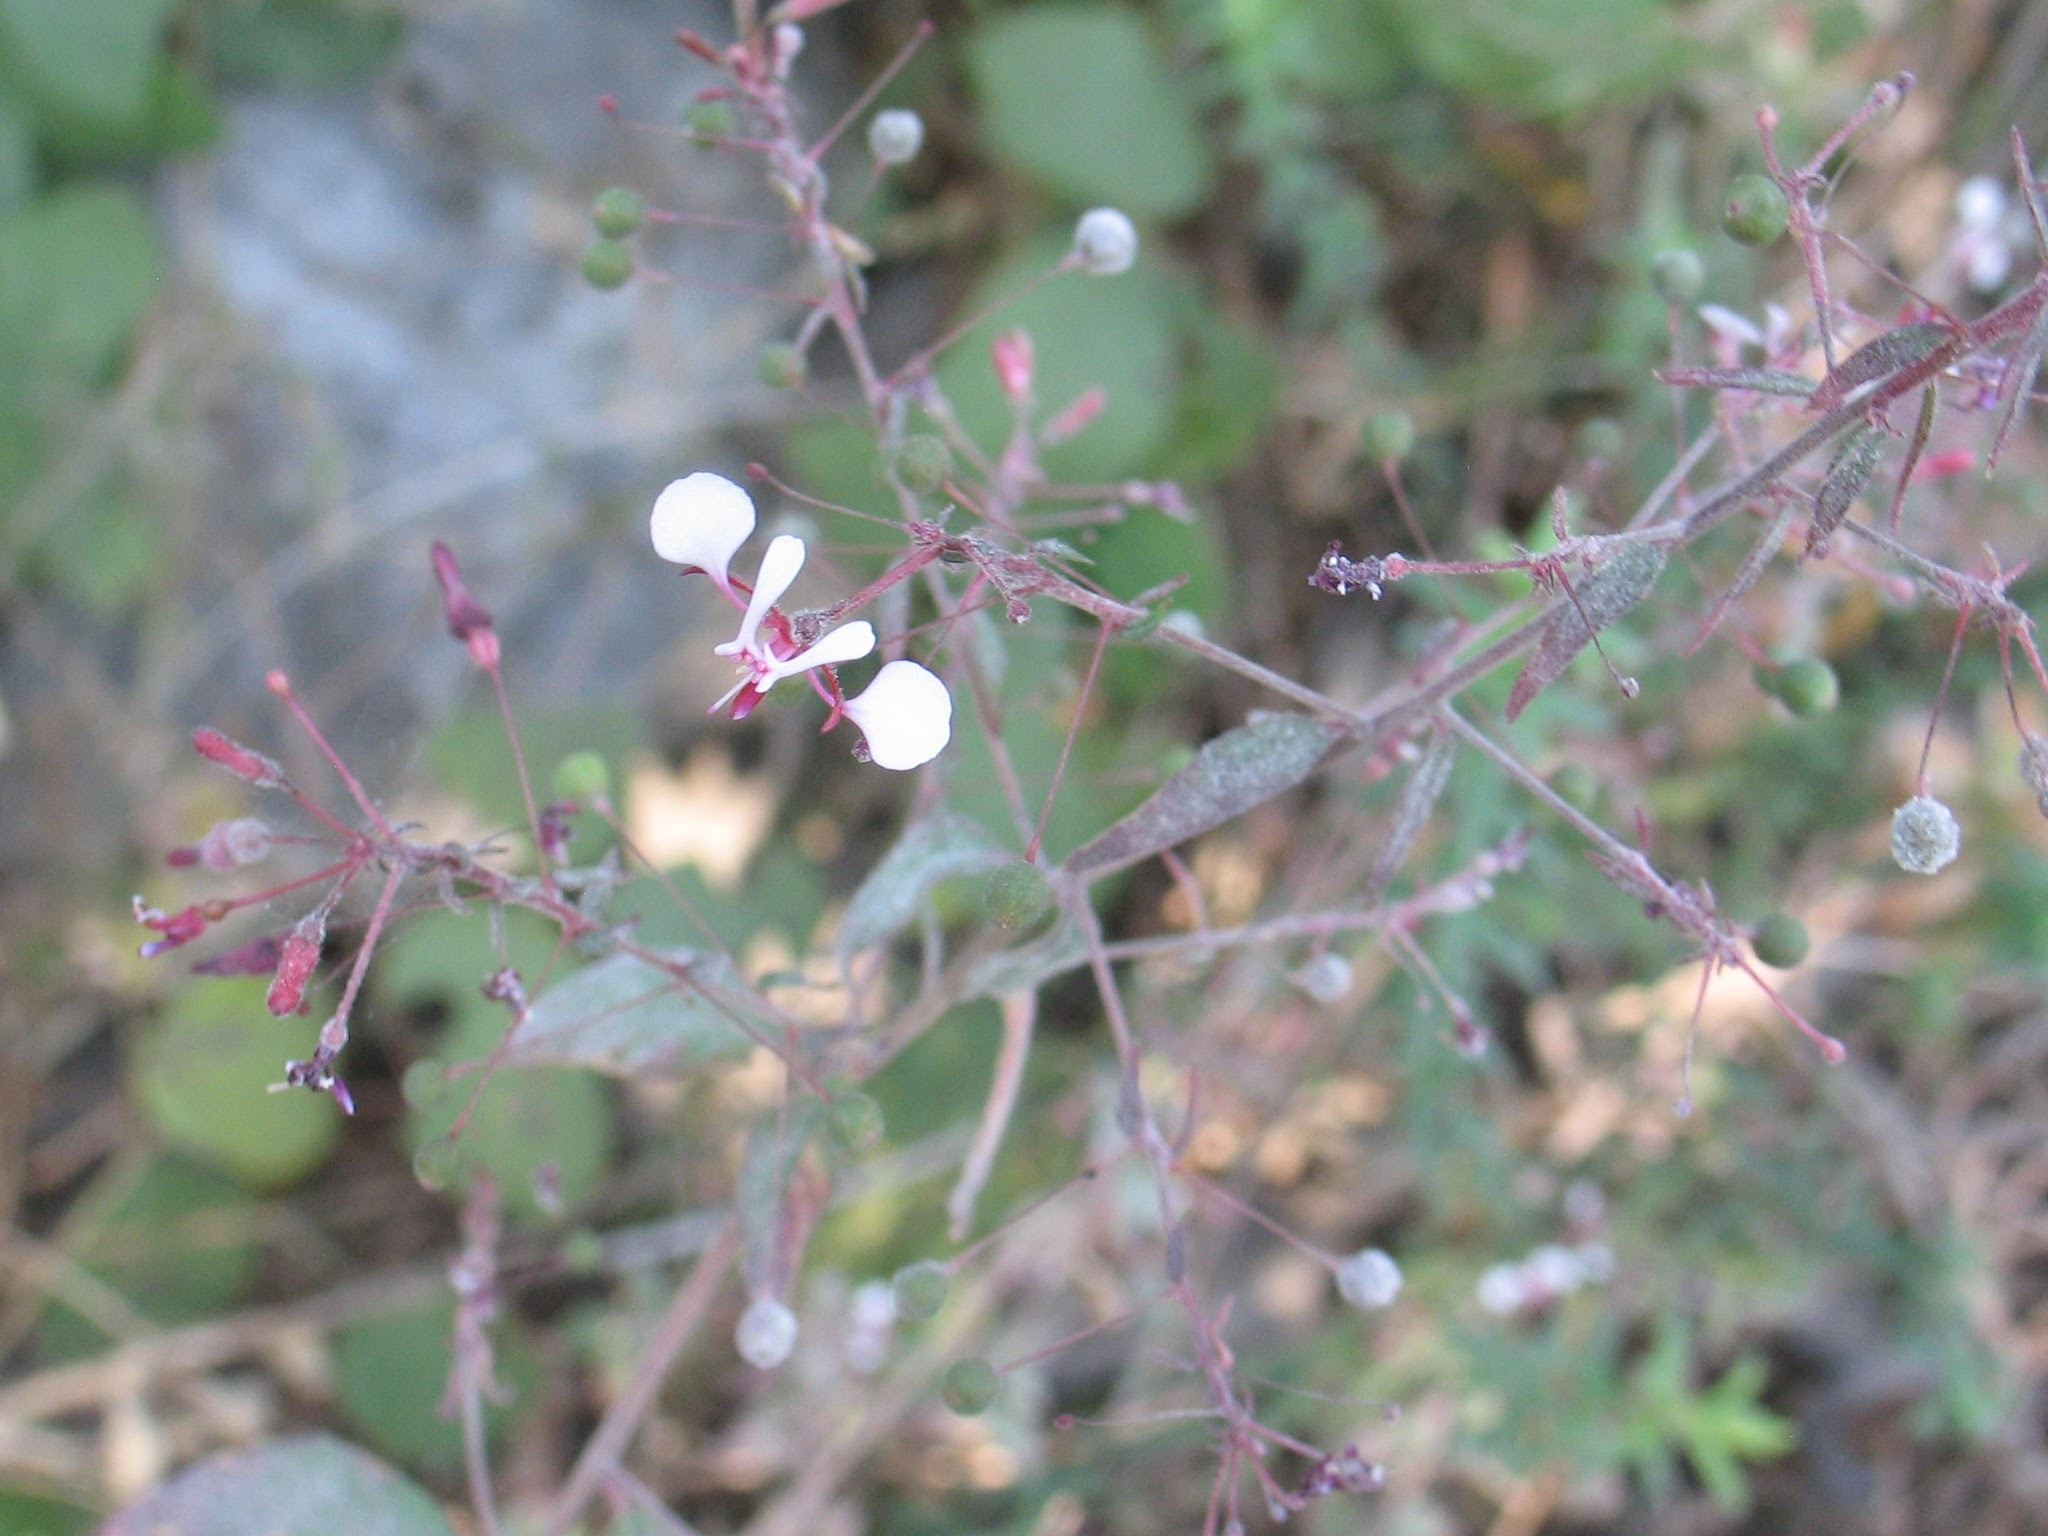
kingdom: Plantae
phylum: Tracheophyta
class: Magnoliopsida
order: Myrtales
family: Onagraceae
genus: Lopezia
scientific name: Lopezia racemosa
